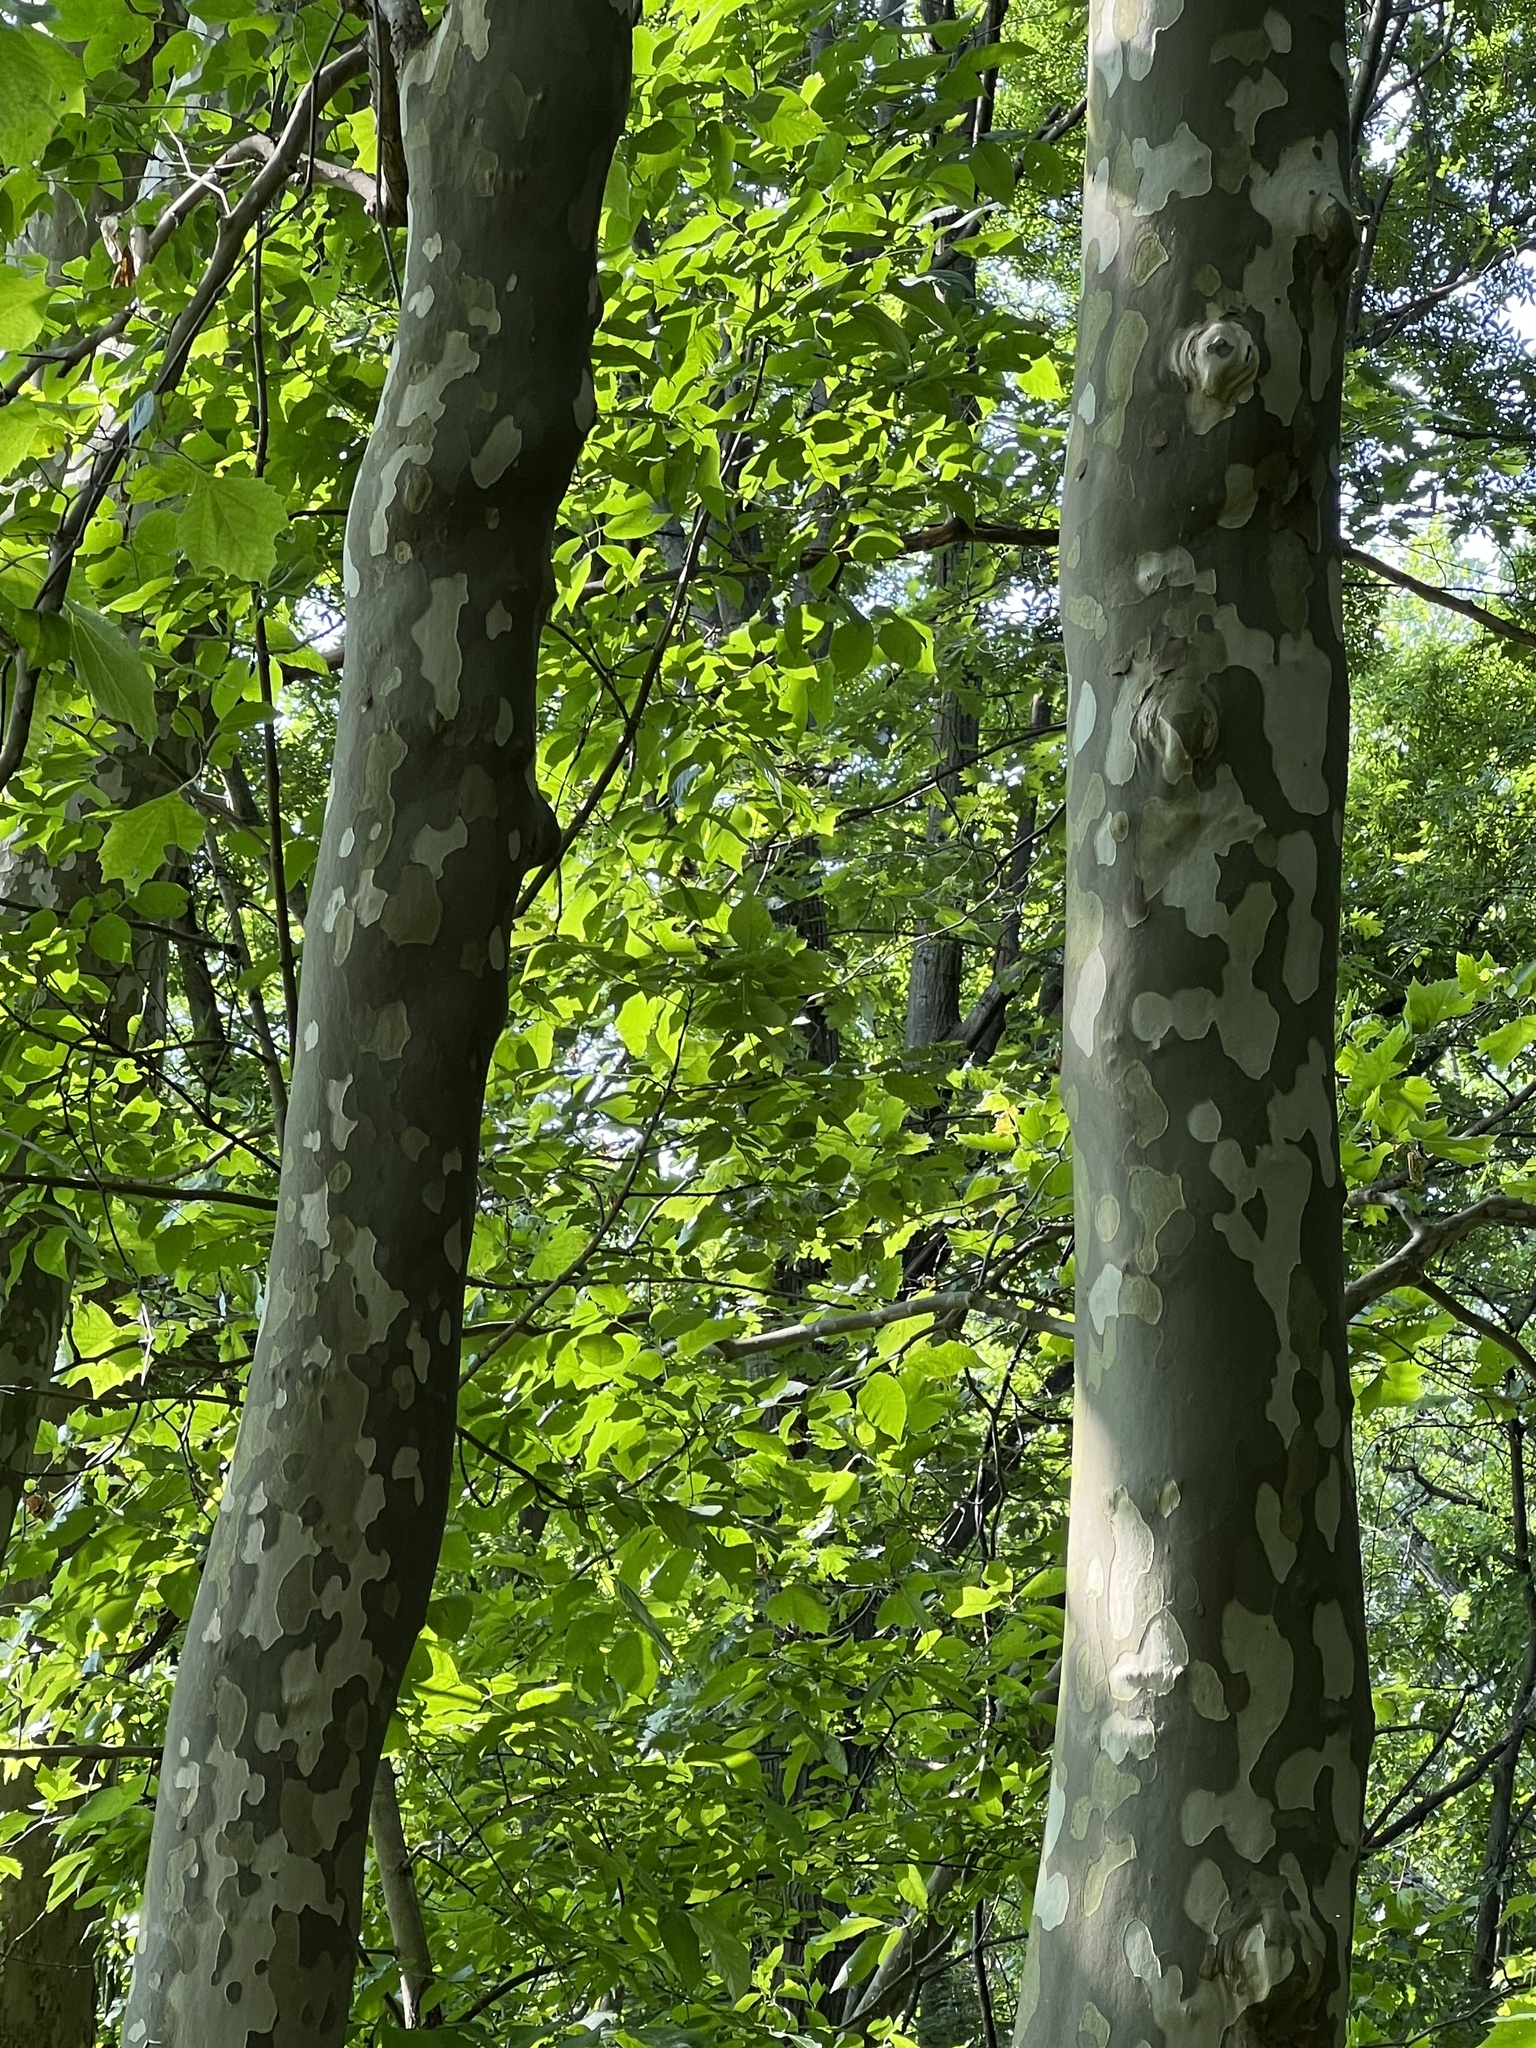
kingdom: Plantae
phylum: Tracheophyta
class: Magnoliopsida
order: Proteales
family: Platanaceae
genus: Platanus
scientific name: Platanus occidentalis
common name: American sycamore
